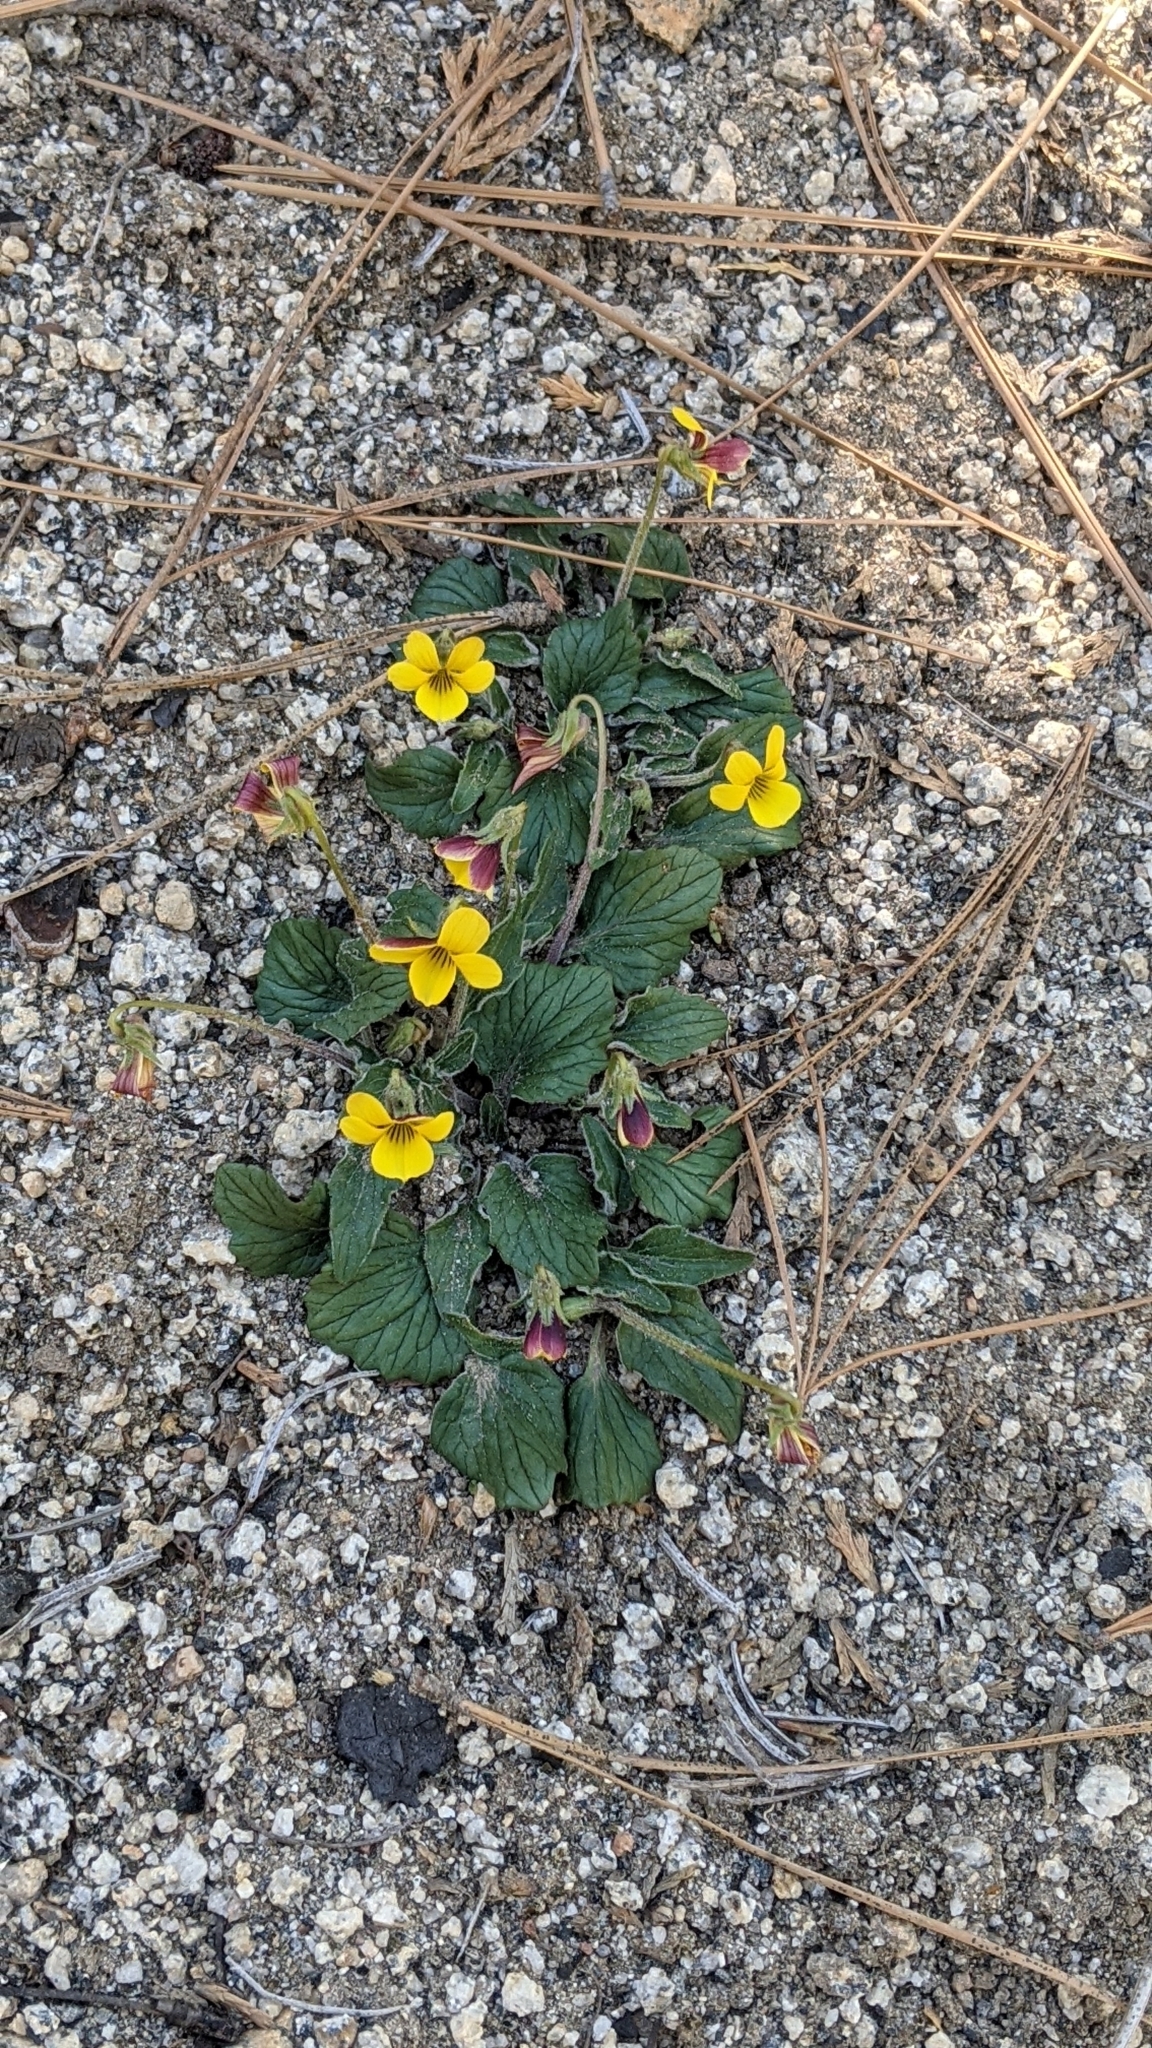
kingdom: Plantae
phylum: Tracheophyta
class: Magnoliopsida
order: Malpighiales
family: Violaceae
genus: Viola
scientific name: Viola purpurea
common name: Pine violet
